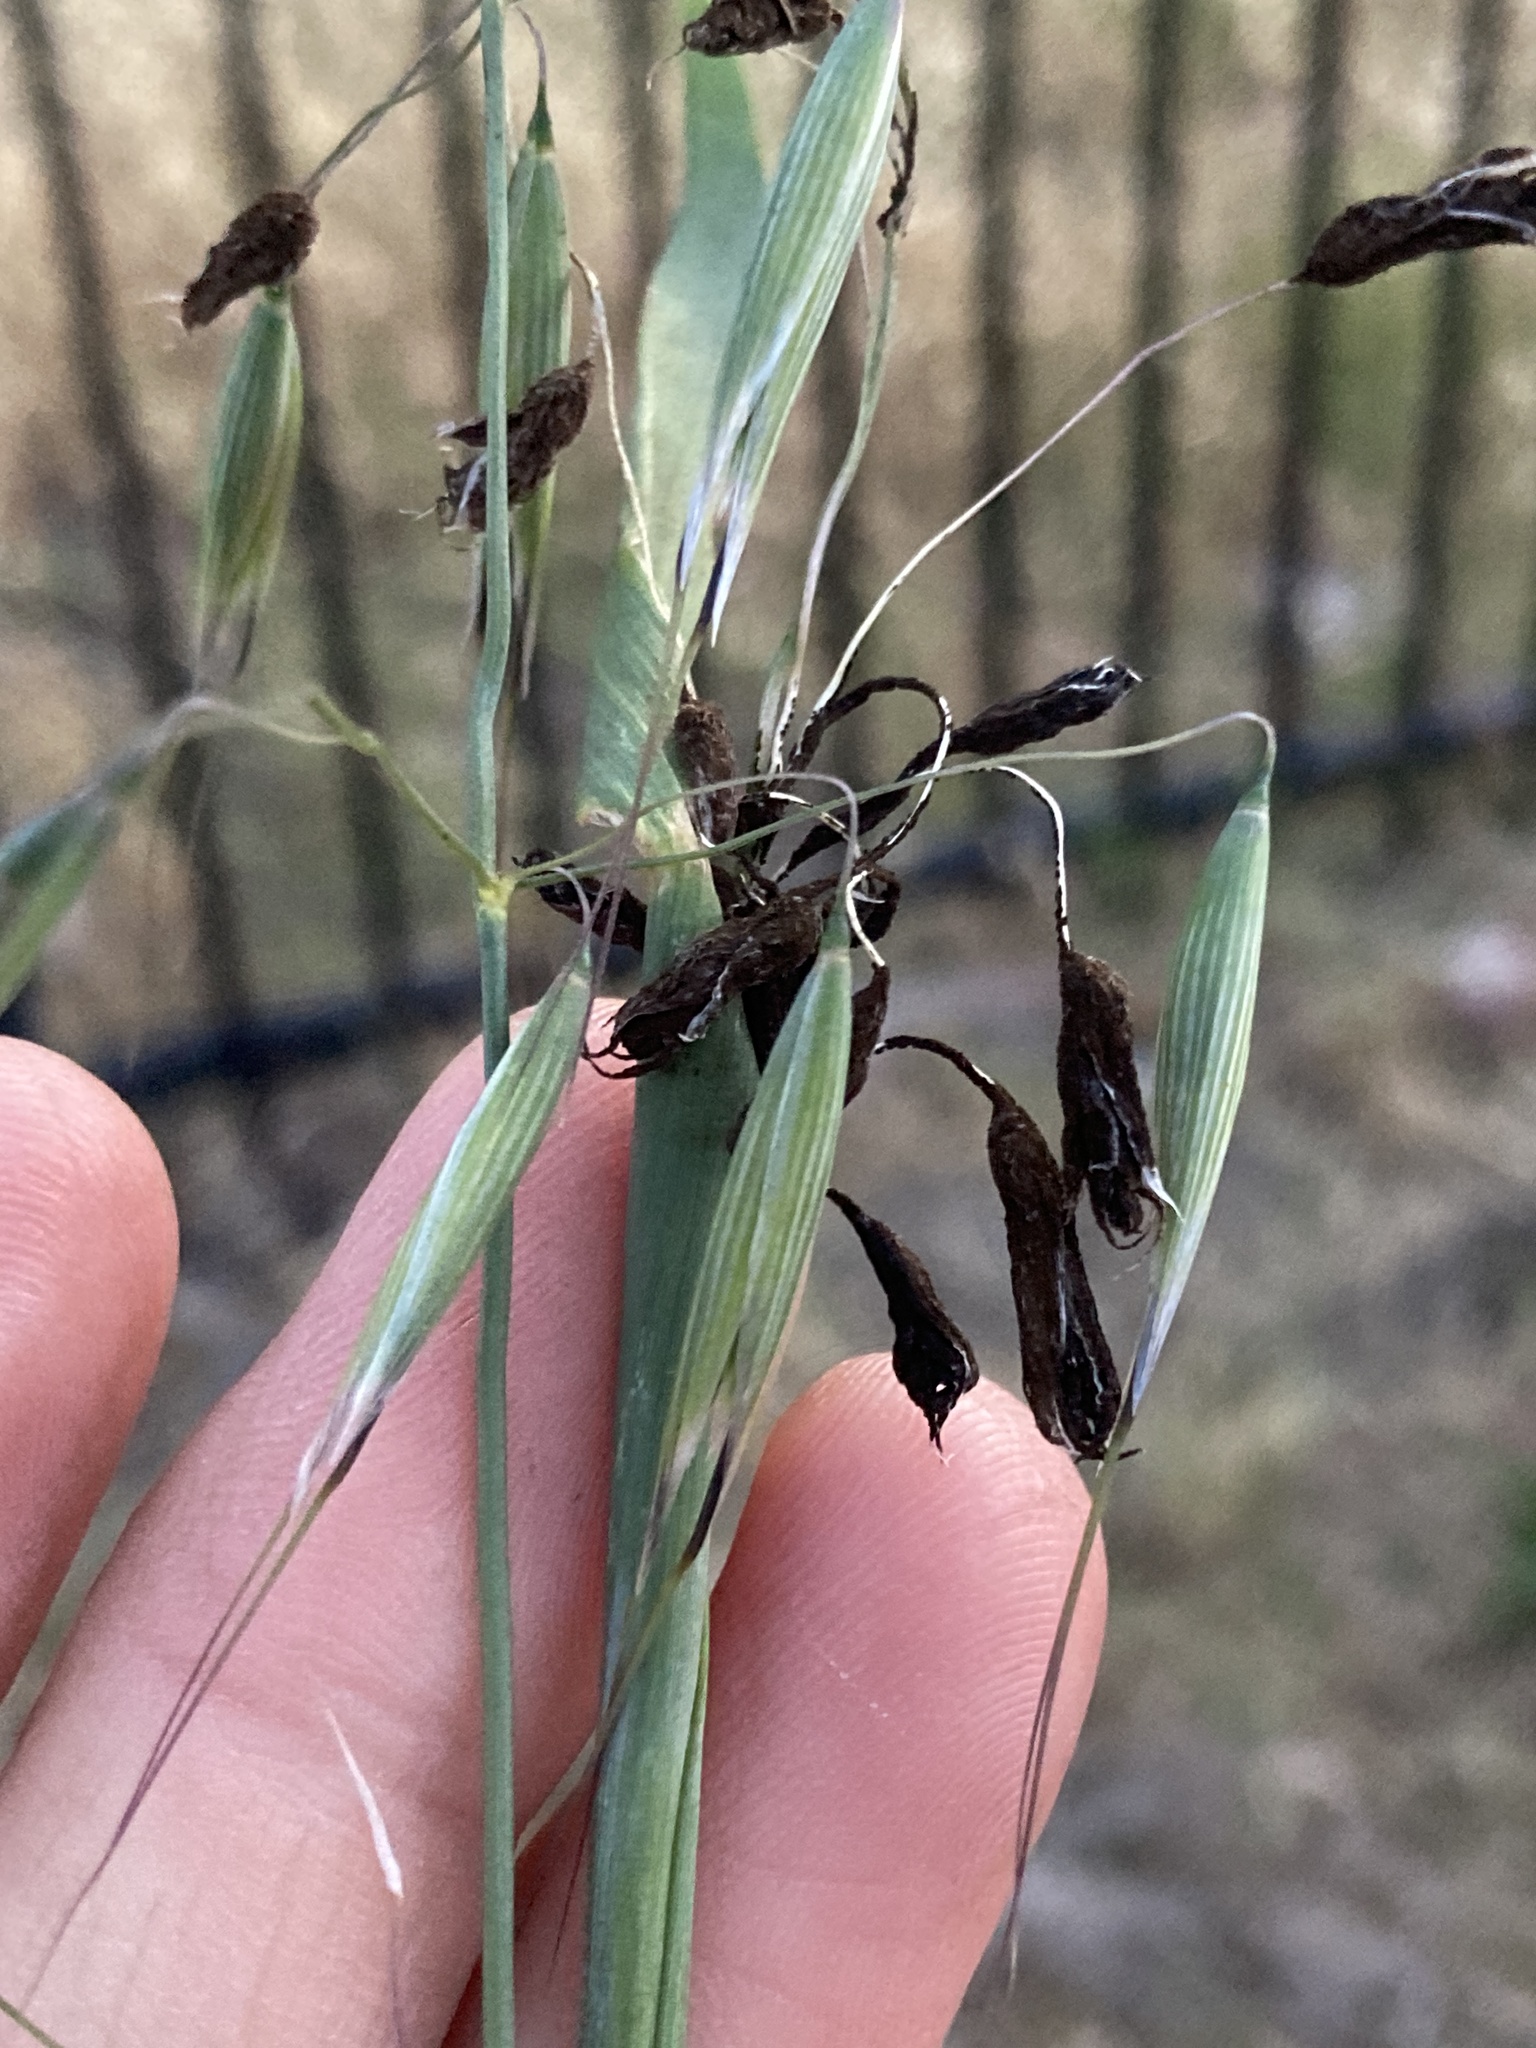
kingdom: Fungi
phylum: Basidiomycota
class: Ustilaginomycetes
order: Ustilaginales
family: Ustilaginaceae
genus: Ustilago
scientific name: Ustilago avenae
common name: Loose smut of oats & oat grass
